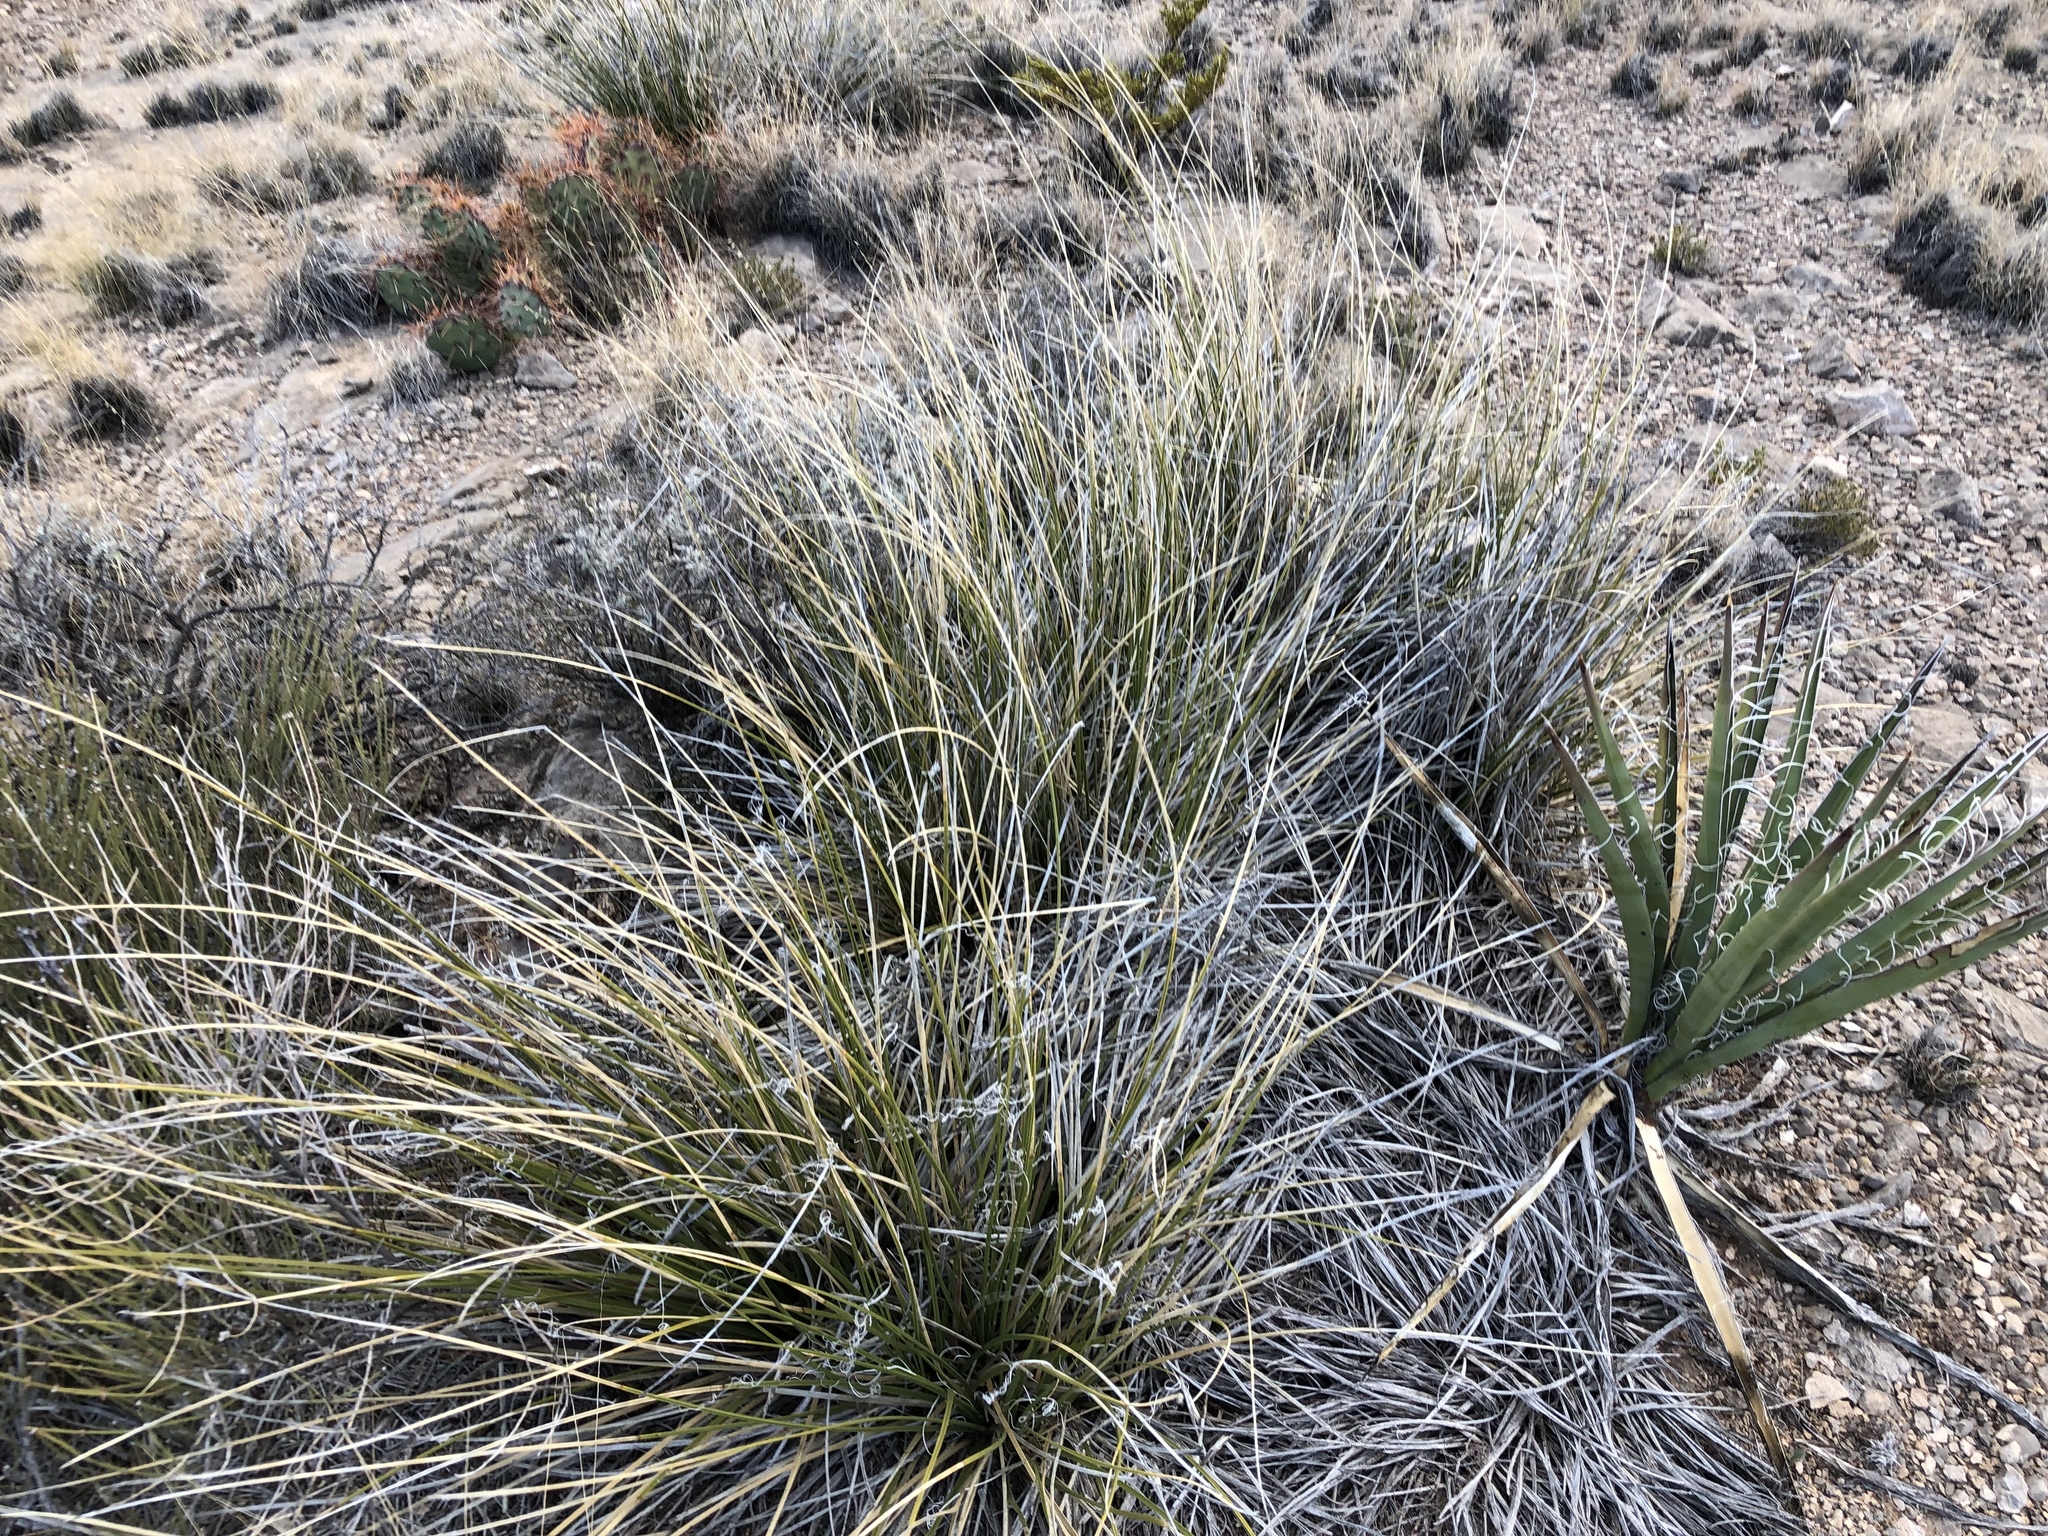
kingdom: Plantae
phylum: Tracheophyta
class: Liliopsida
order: Asparagales
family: Asparagaceae
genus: Nolina
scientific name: Nolina texana
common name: Texas sacahuiste
